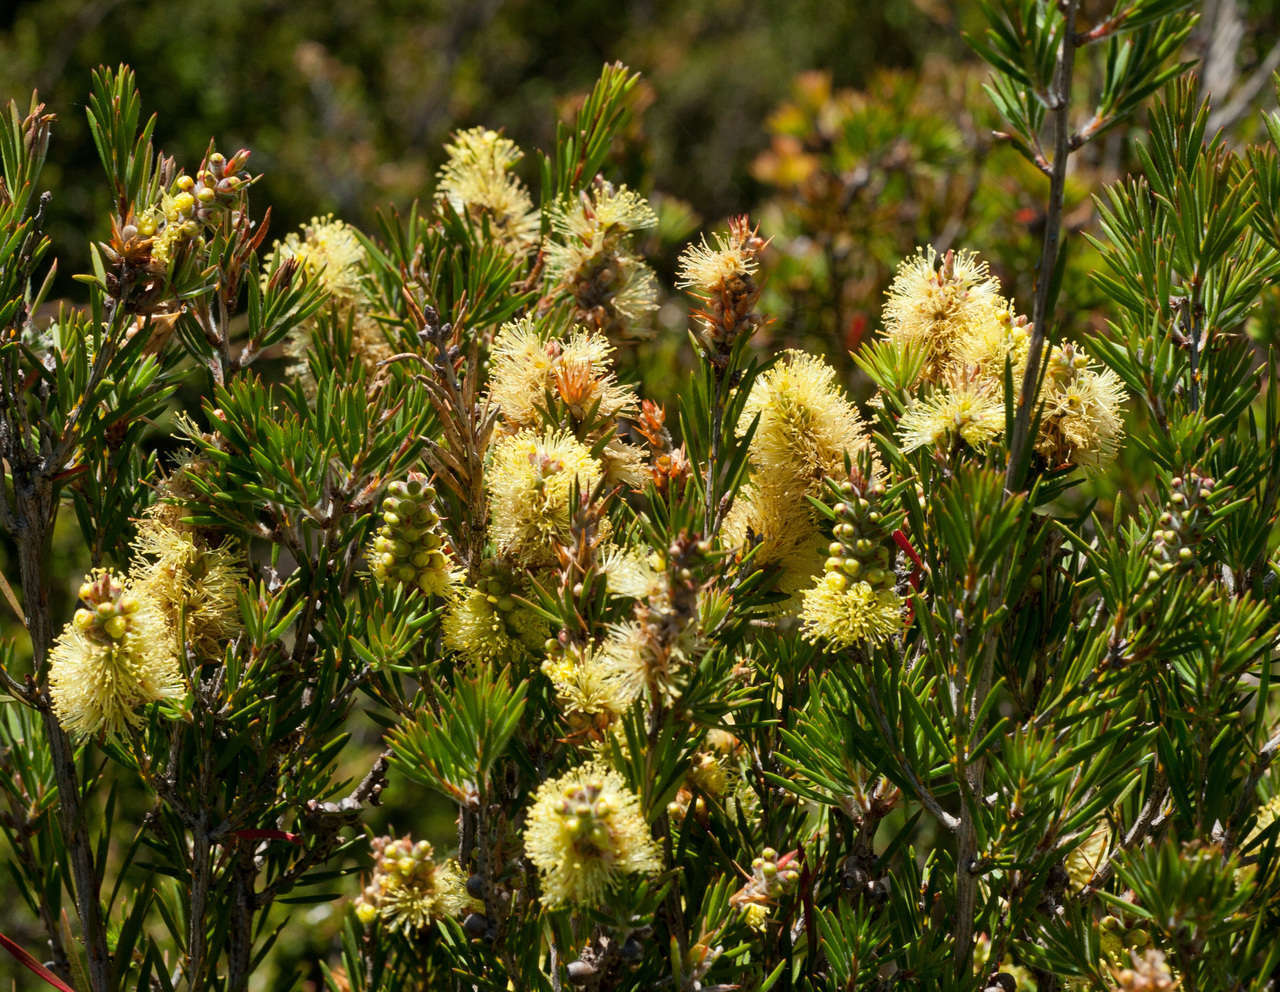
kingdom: Plantae
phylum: Tracheophyta
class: Magnoliopsida
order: Myrtales
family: Myrtaceae
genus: Callistemon
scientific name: Callistemon pityoides
